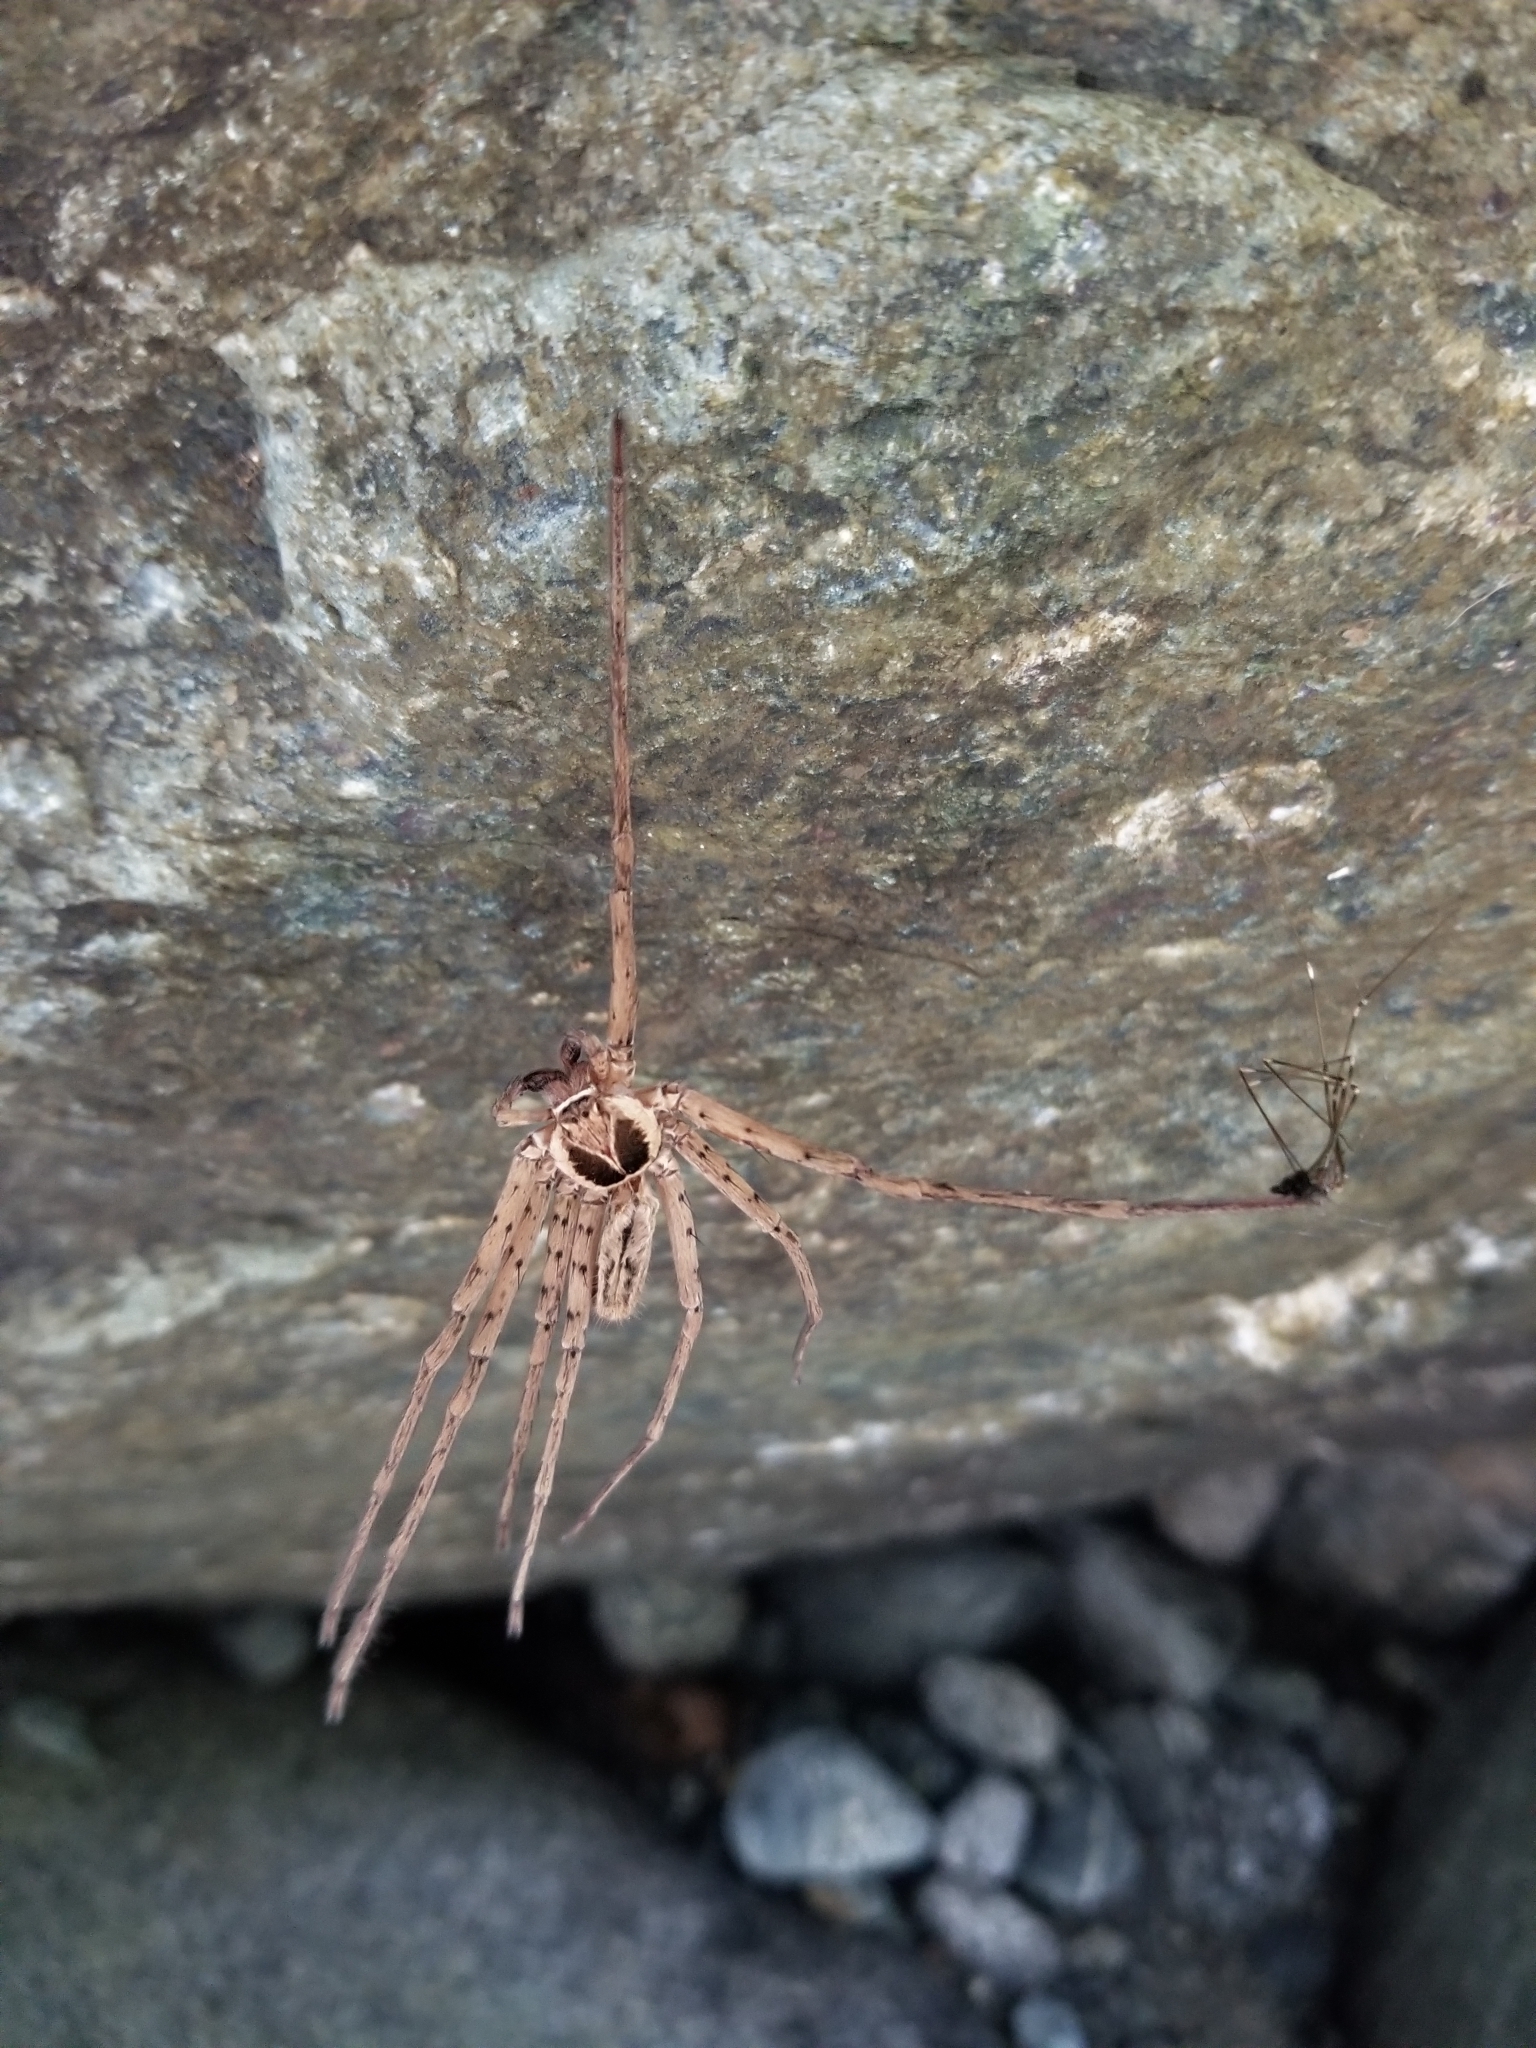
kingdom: Animalia
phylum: Arthropoda
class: Arachnida
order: Araneae
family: Sparassidae
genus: Heteropoda
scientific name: Heteropoda venatoria
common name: Huntsman spider
